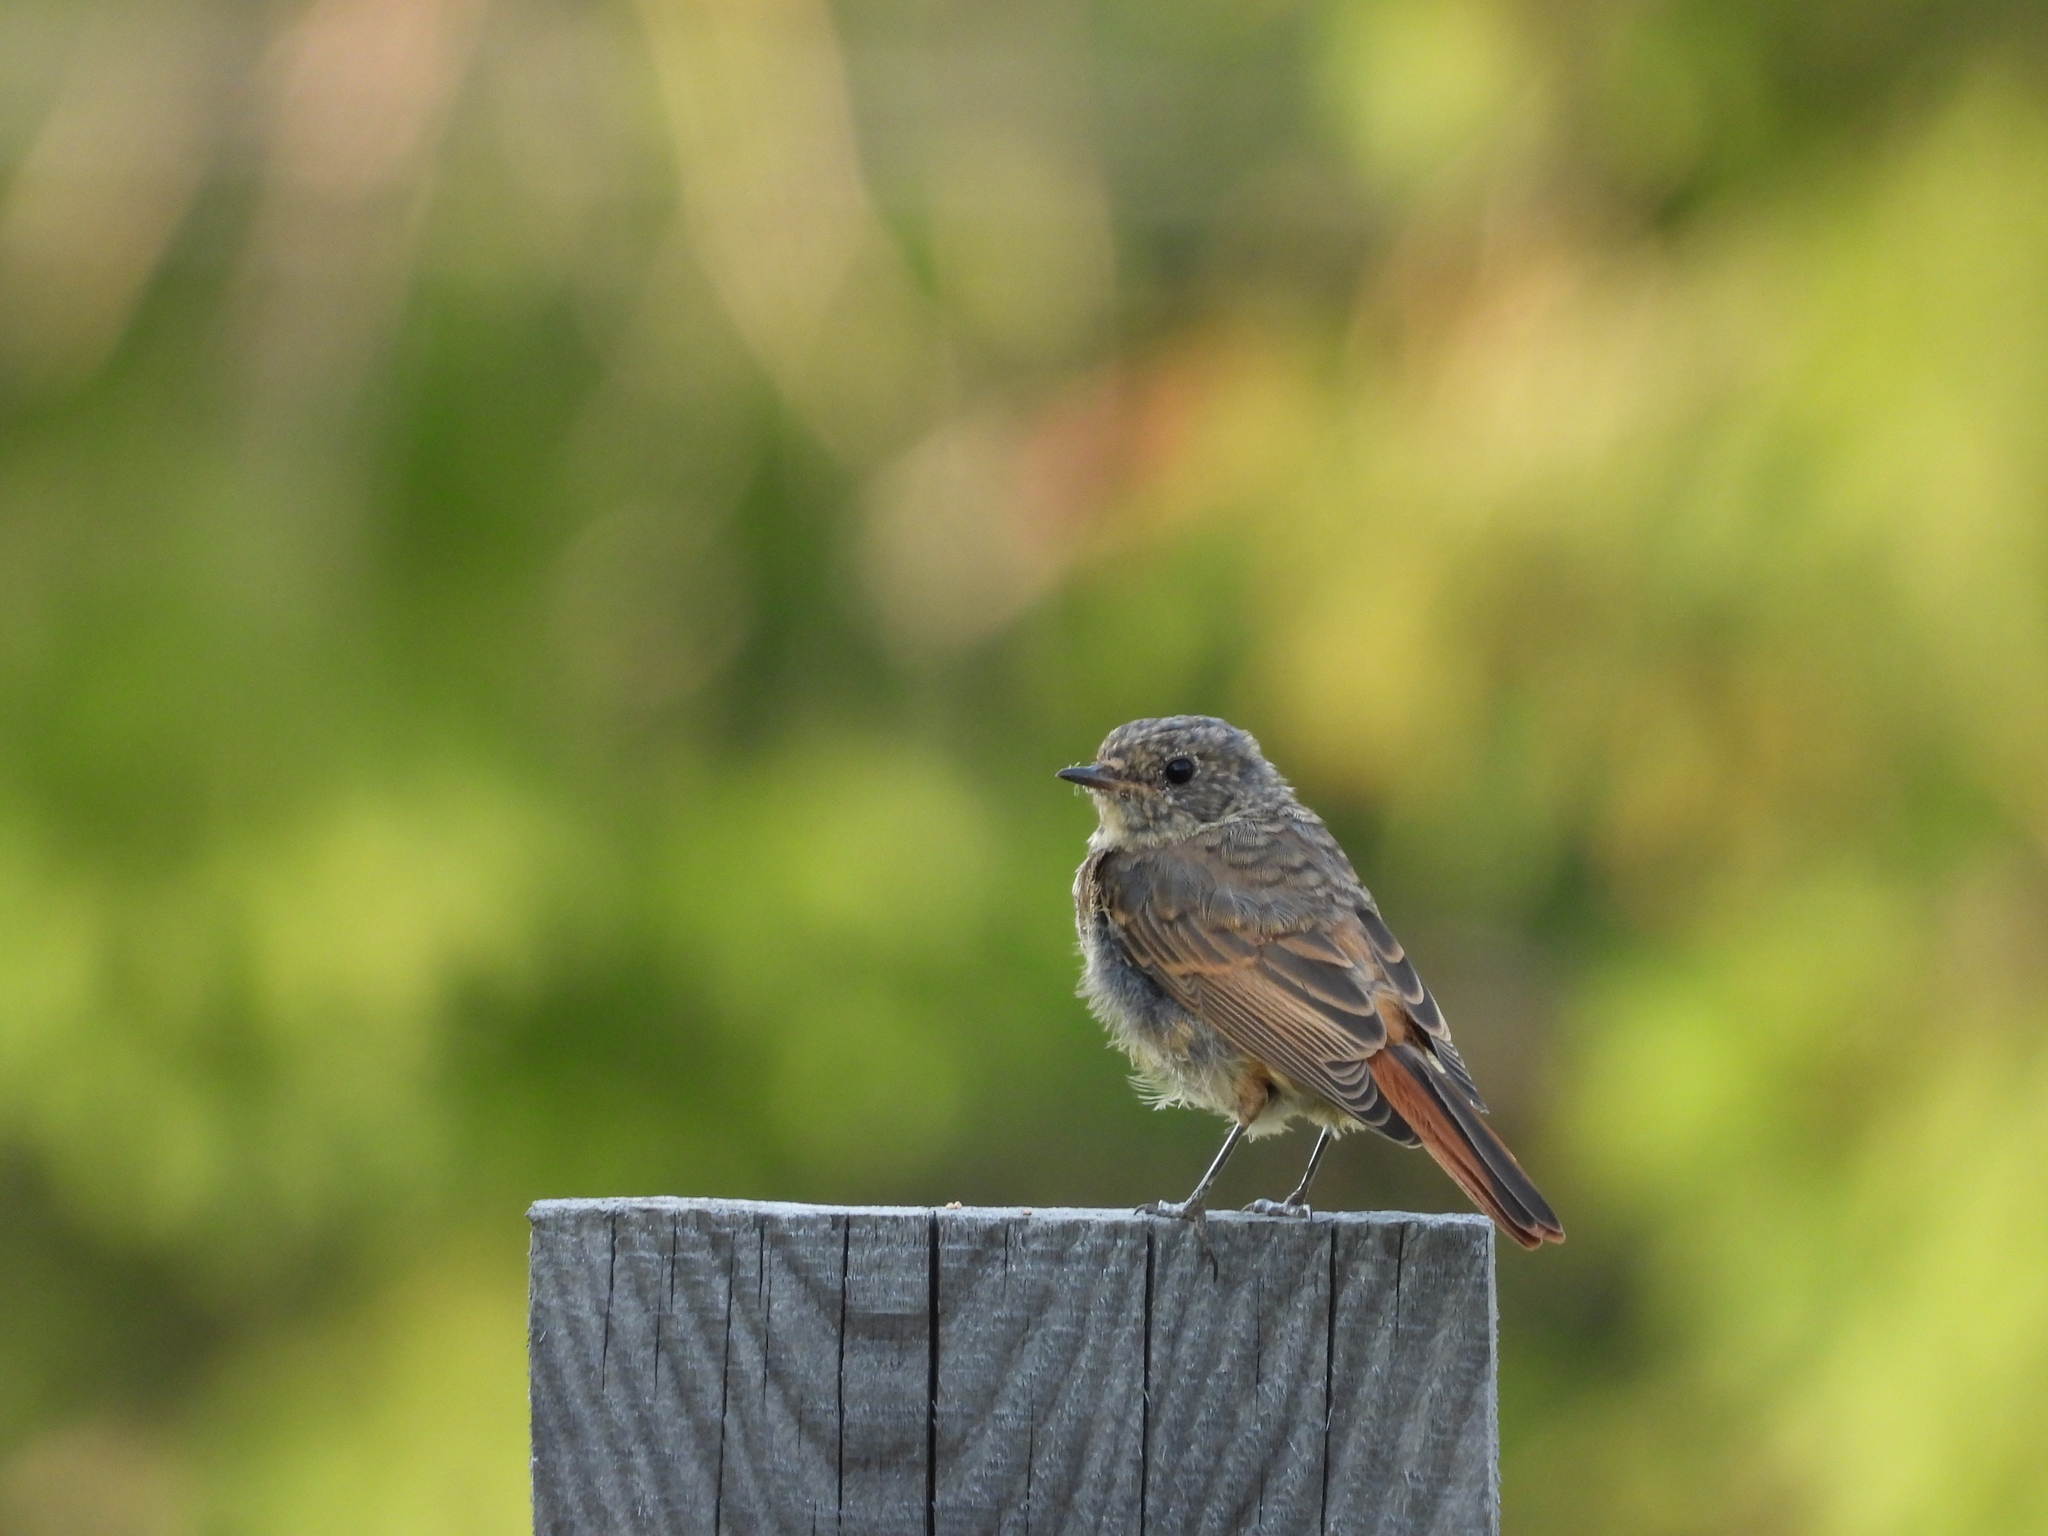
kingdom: Animalia
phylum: Chordata
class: Aves
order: Passeriformes
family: Muscicapidae
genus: Phoenicurus
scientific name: Phoenicurus phoenicurus
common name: Common redstart
